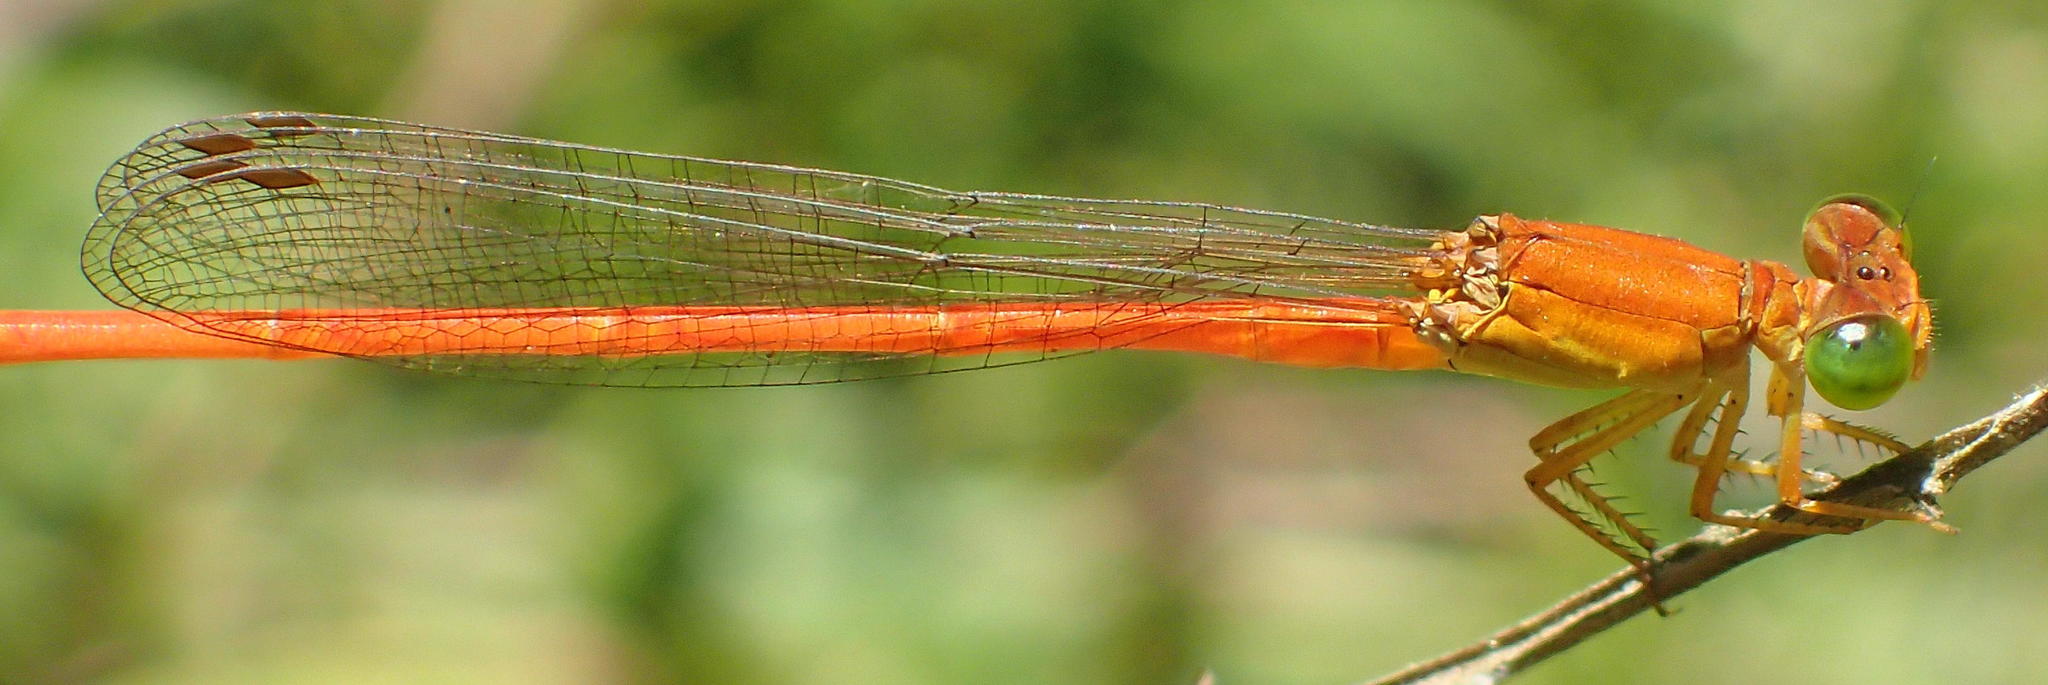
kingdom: Animalia
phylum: Arthropoda
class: Insecta
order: Odonata
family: Coenagrionidae
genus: Ceriagrion
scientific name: Ceriagrion glabrum
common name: Common pond damsel
